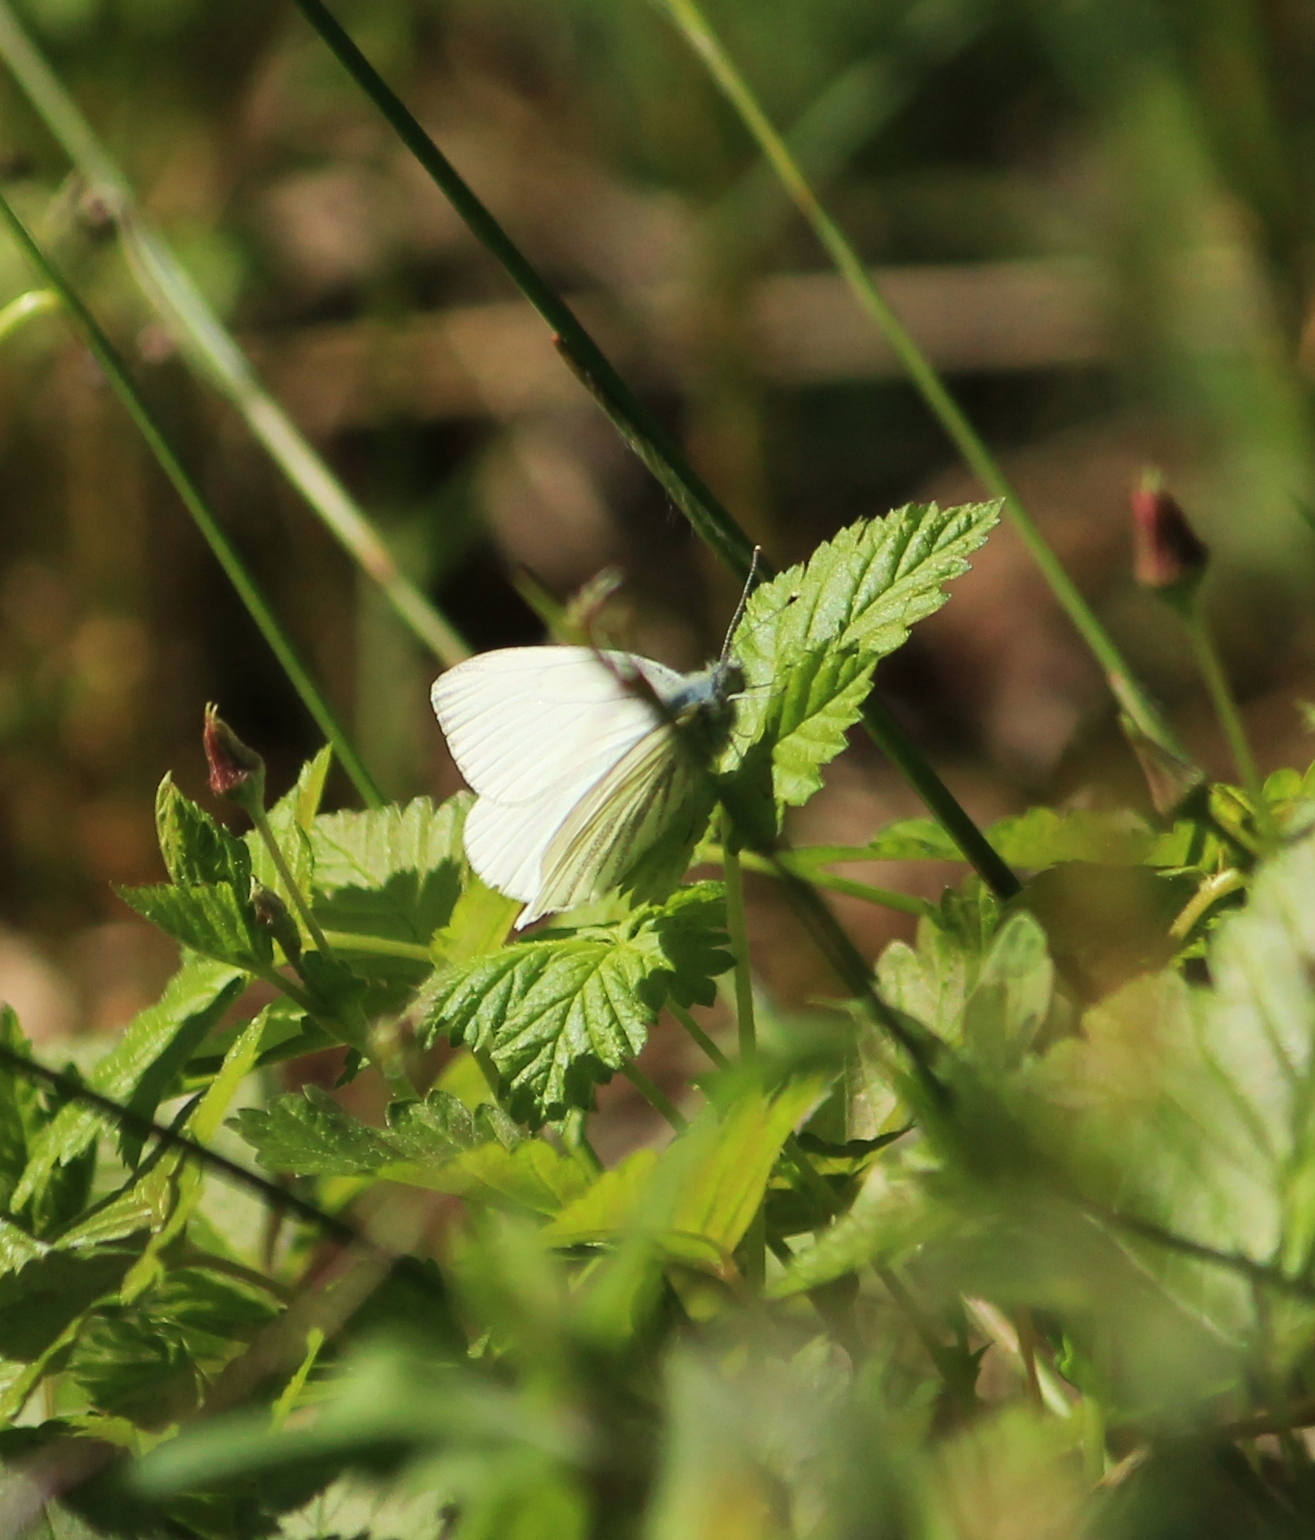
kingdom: Animalia
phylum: Arthropoda
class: Insecta
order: Lepidoptera
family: Pieridae
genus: Pieris
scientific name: Pieris napi
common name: Green-veined white
